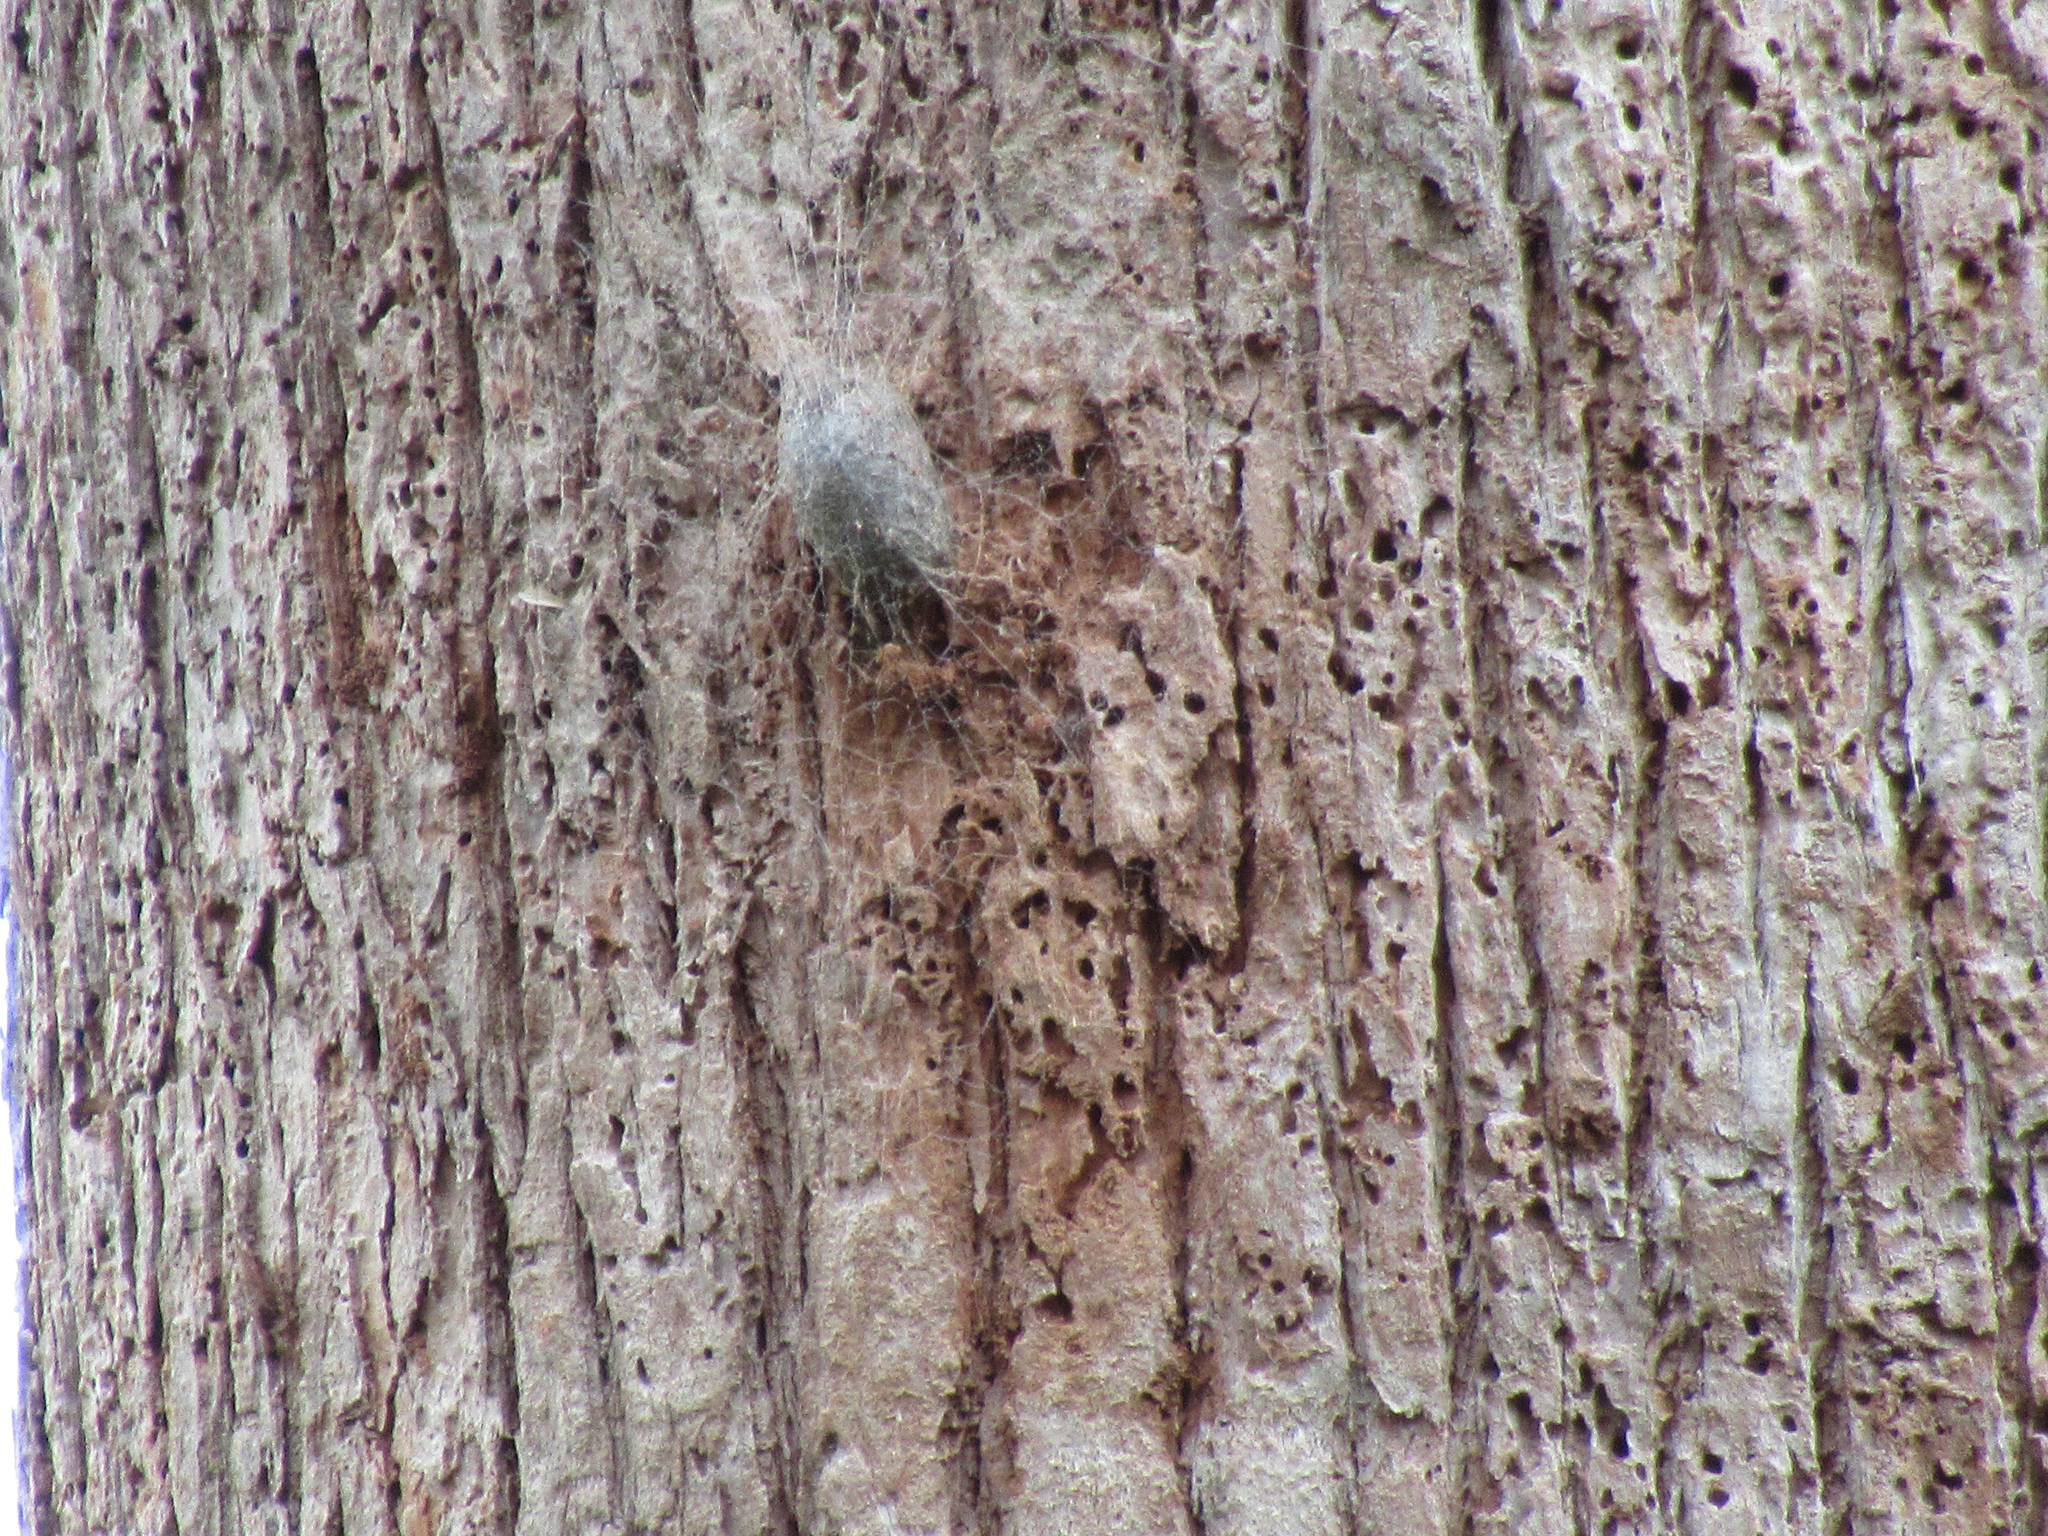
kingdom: Animalia
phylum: Arthropoda
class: Insecta
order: Lepidoptera
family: Saturniidae
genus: Opodiphthera
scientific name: Opodiphthera
